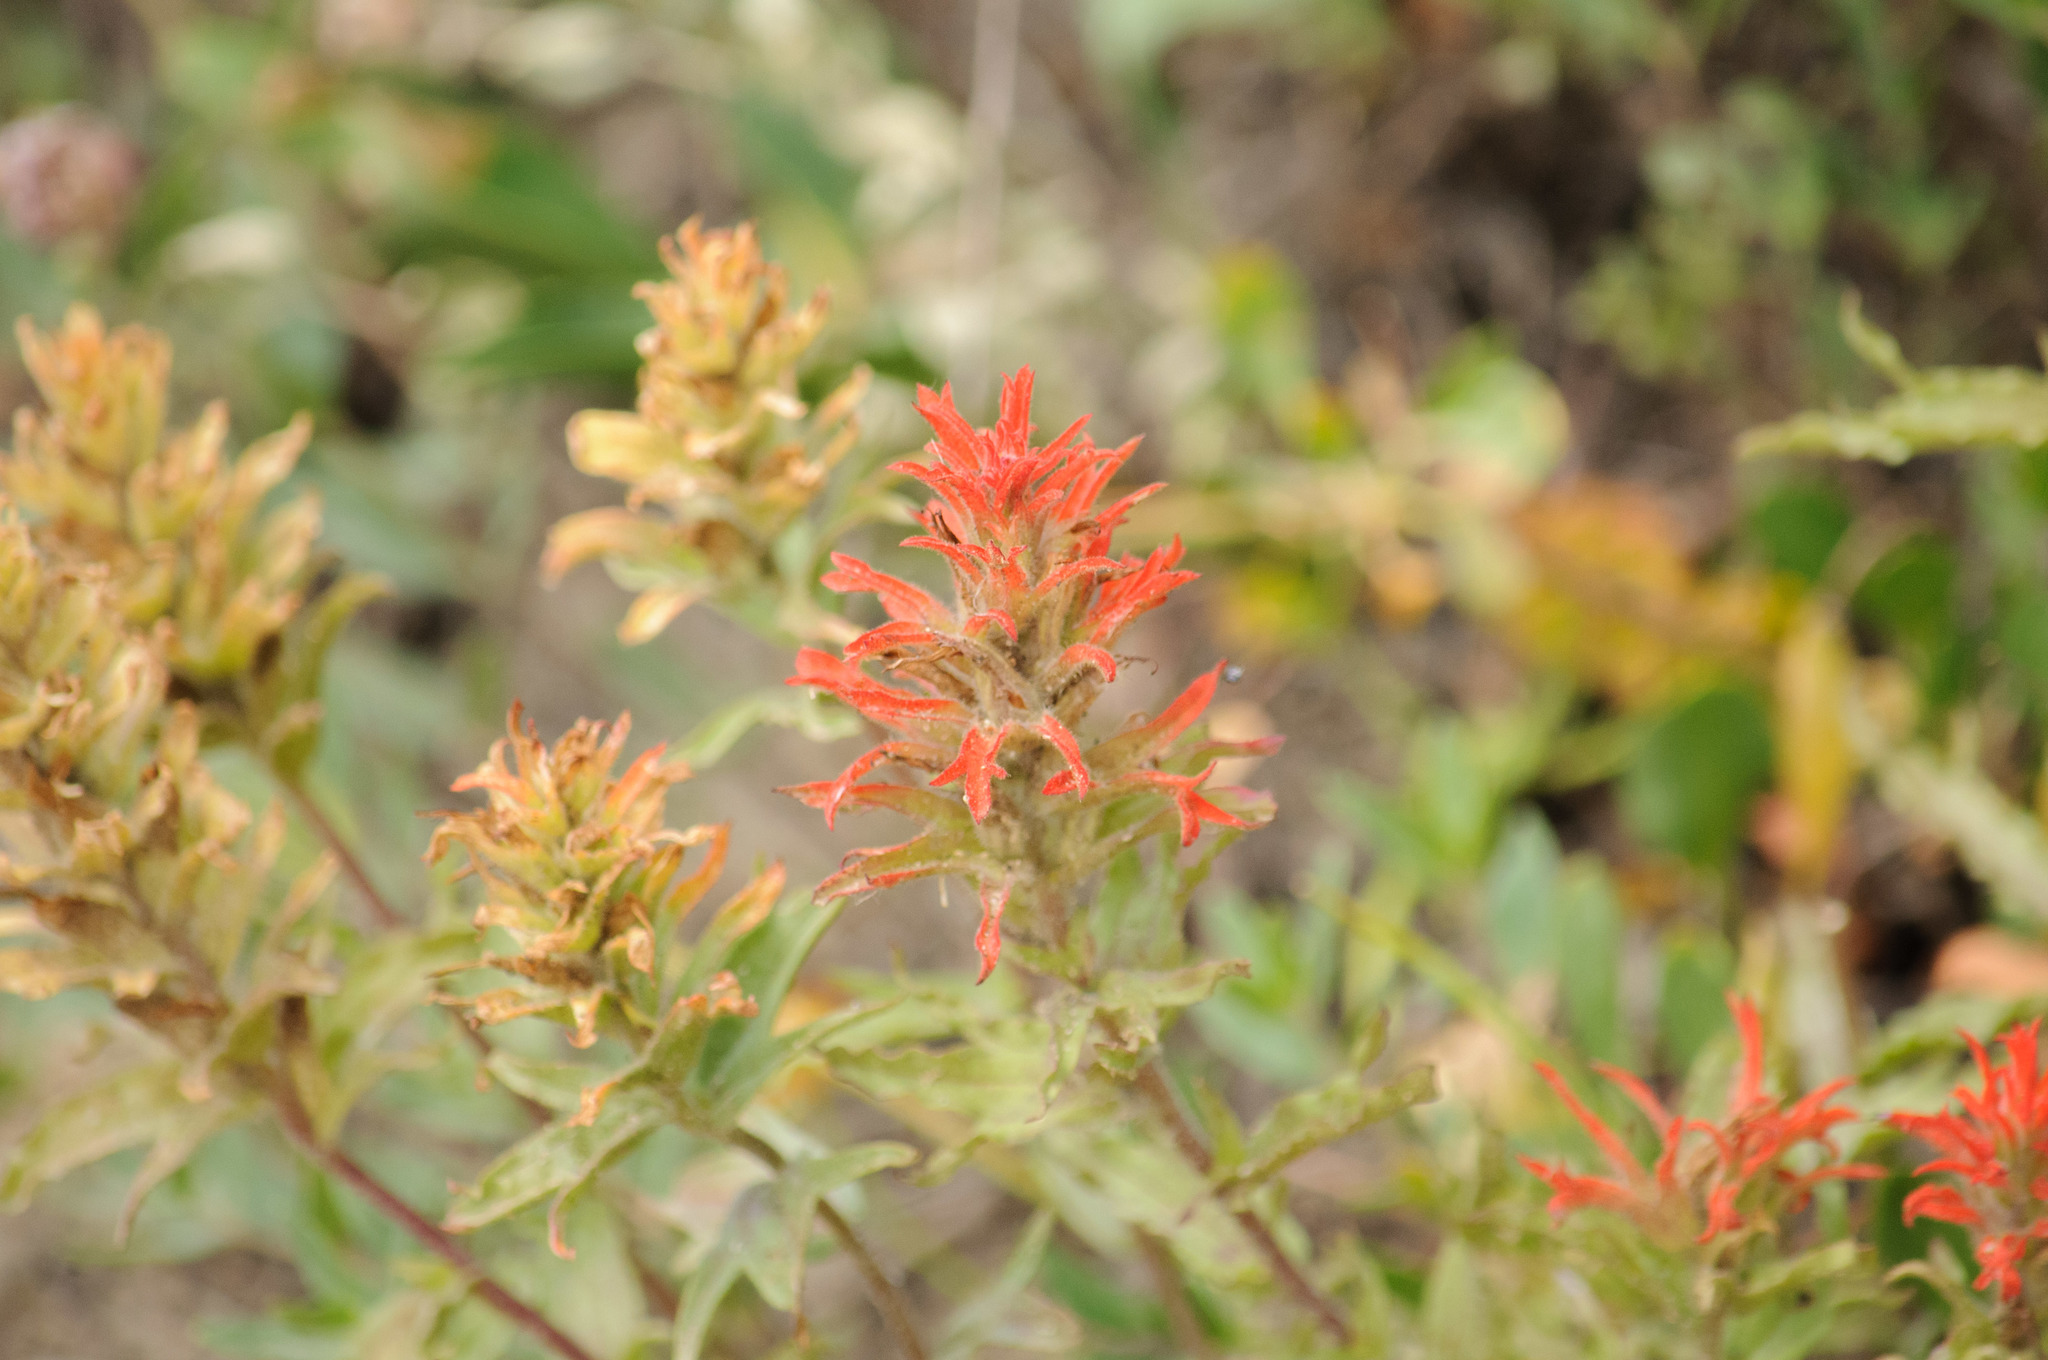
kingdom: Plantae
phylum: Tracheophyta
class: Magnoliopsida
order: Lamiales
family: Orobanchaceae
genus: Castilleja
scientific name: Castilleja applegatei
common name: Wavy-leaf paintbrush
